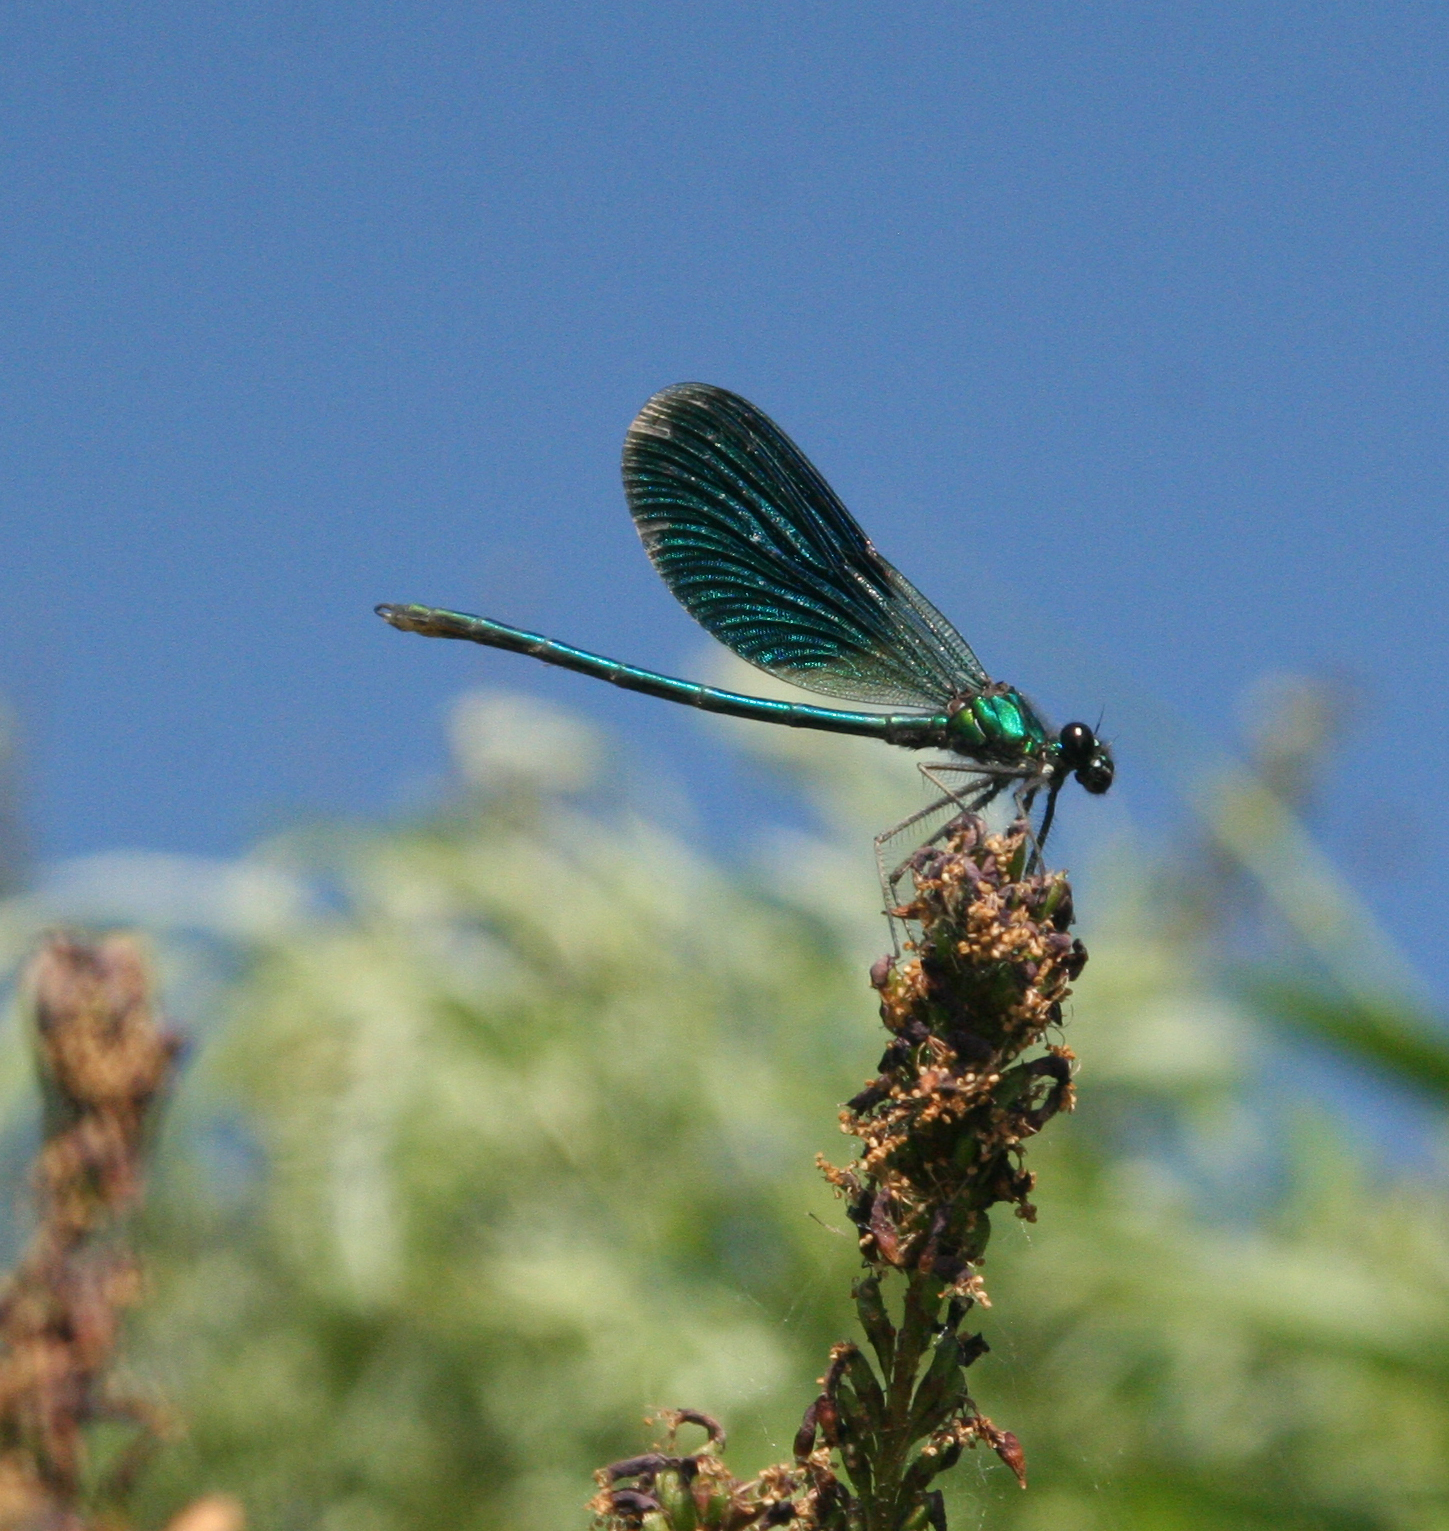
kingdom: Animalia
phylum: Arthropoda
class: Insecta
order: Odonata
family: Calopterygidae
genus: Calopteryx
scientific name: Calopteryx splendens
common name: Banded demoiselle
